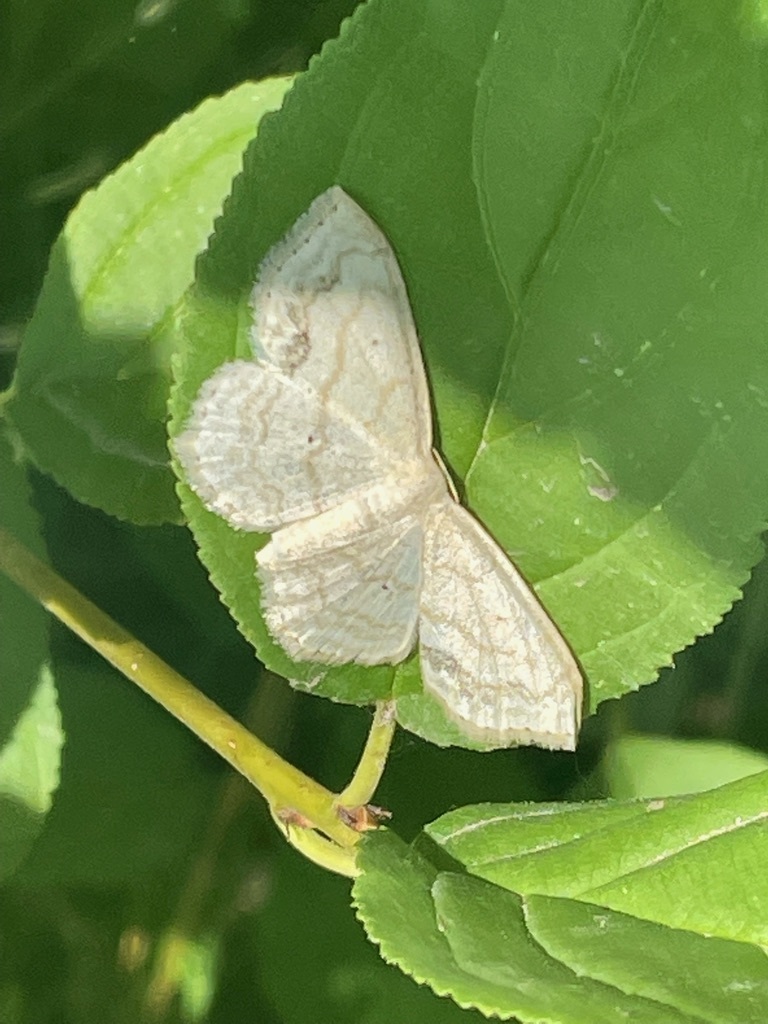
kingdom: Animalia
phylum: Arthropoda
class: Insecta
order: Lepidoptera
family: Geometridae
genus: Scopula
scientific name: Scopula limboundata
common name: Large lace border
